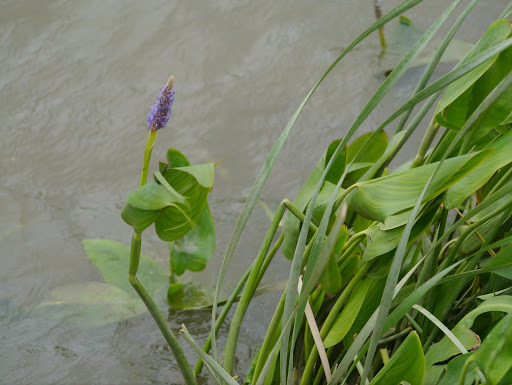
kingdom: Plantae
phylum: Tracheophyta
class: Liliopsida
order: Commelinales
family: Pontederiaceae
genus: Pontederia
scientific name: Pontederia cordata
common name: Pickerelweed
